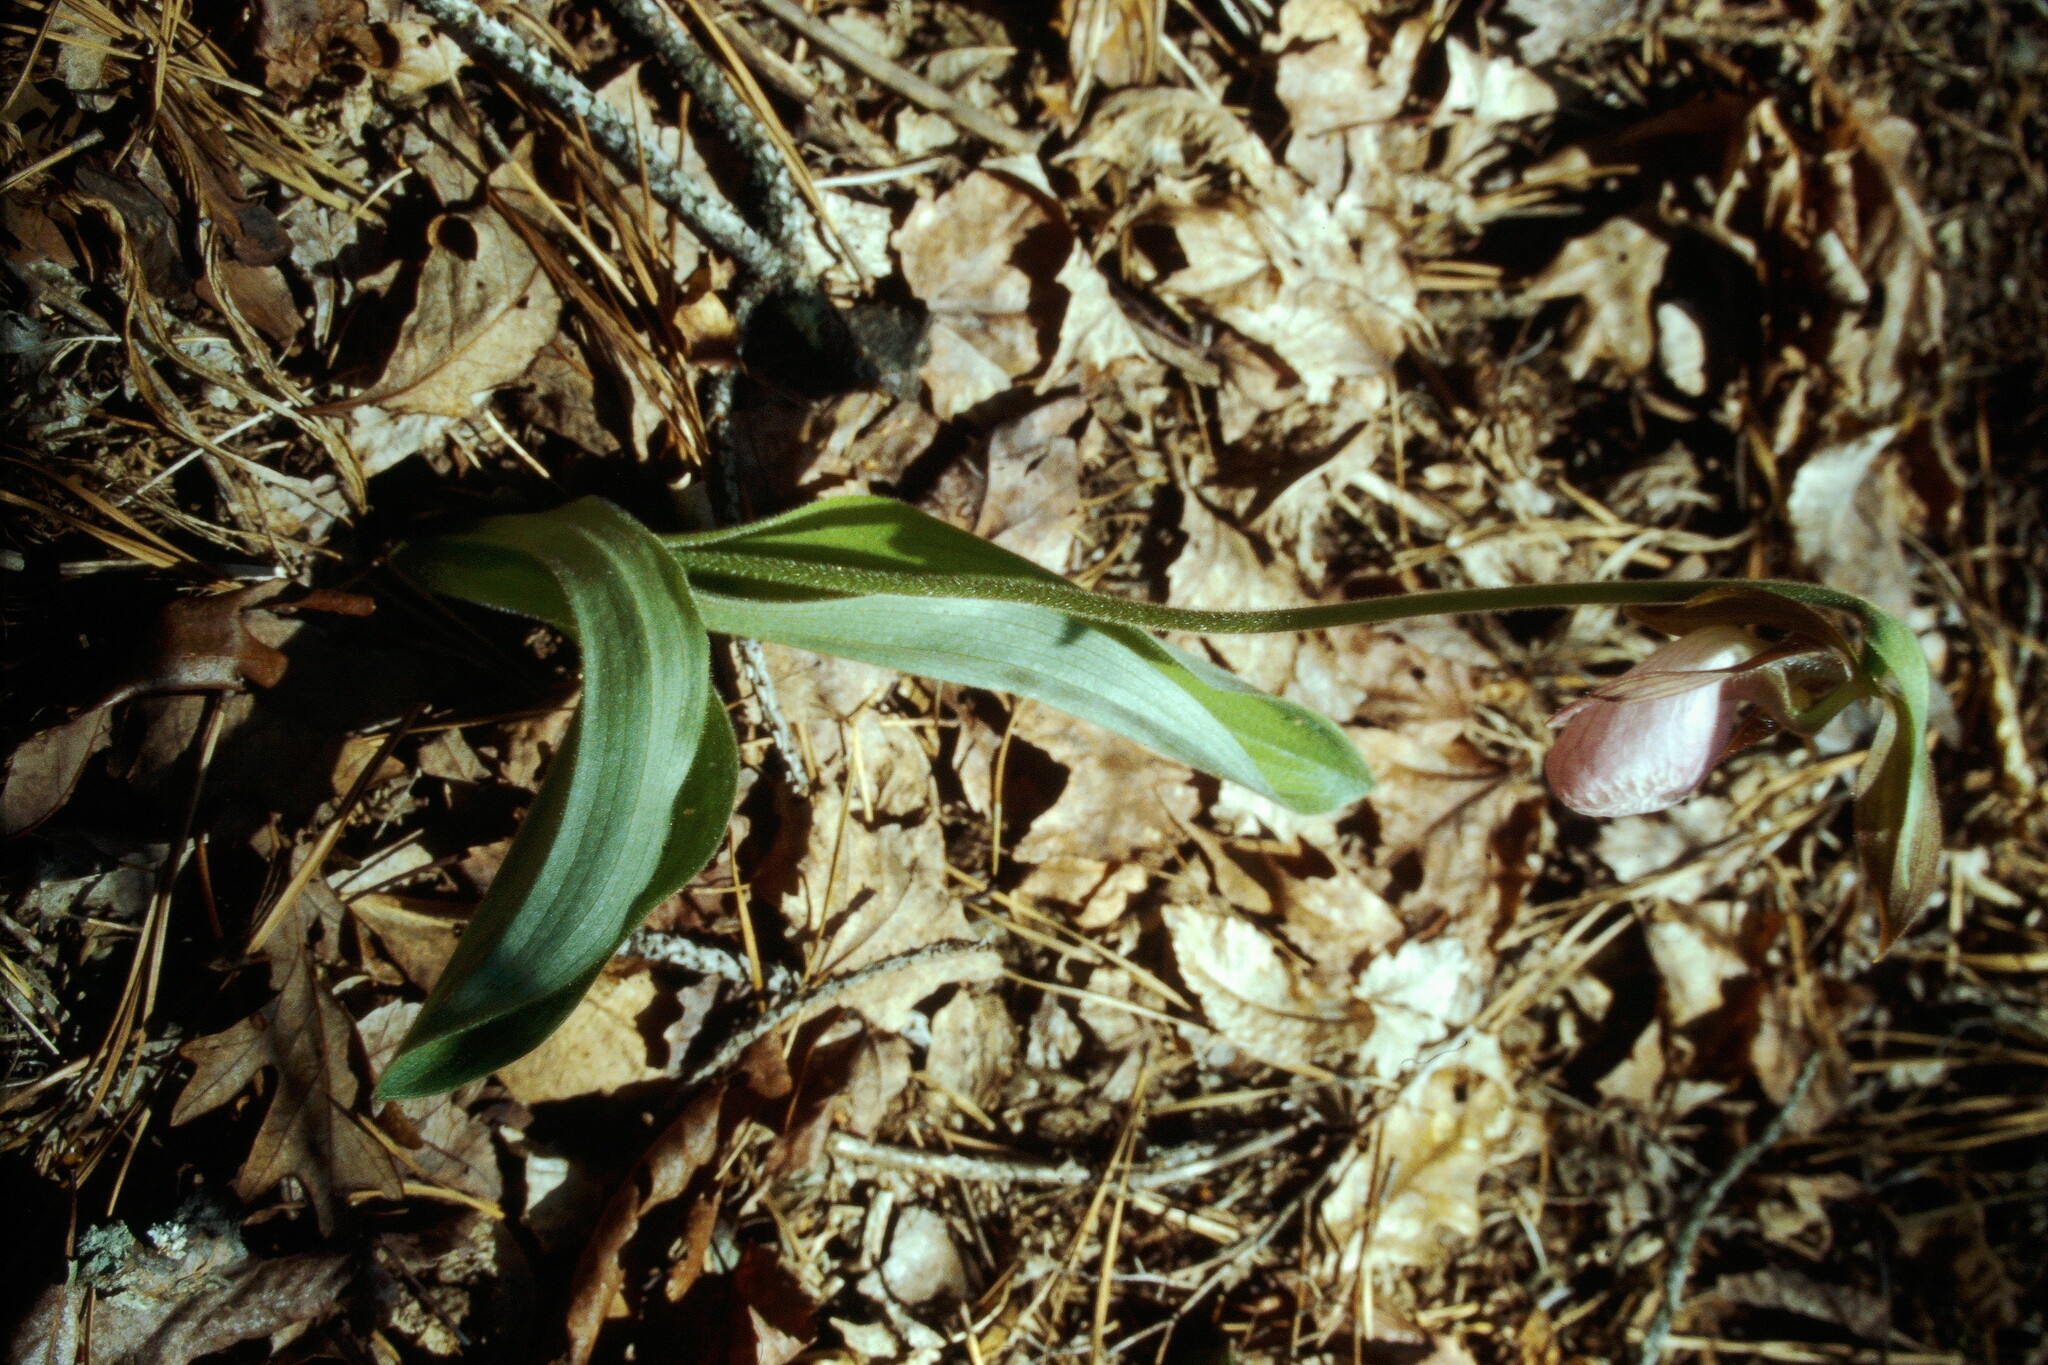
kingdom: Plantae
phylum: Tracheophyta
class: Liliopsida
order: Asparagales
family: Orchidaceae
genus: Cypripedium
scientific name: Cypripedium acaule
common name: Pink lady's-slipper
